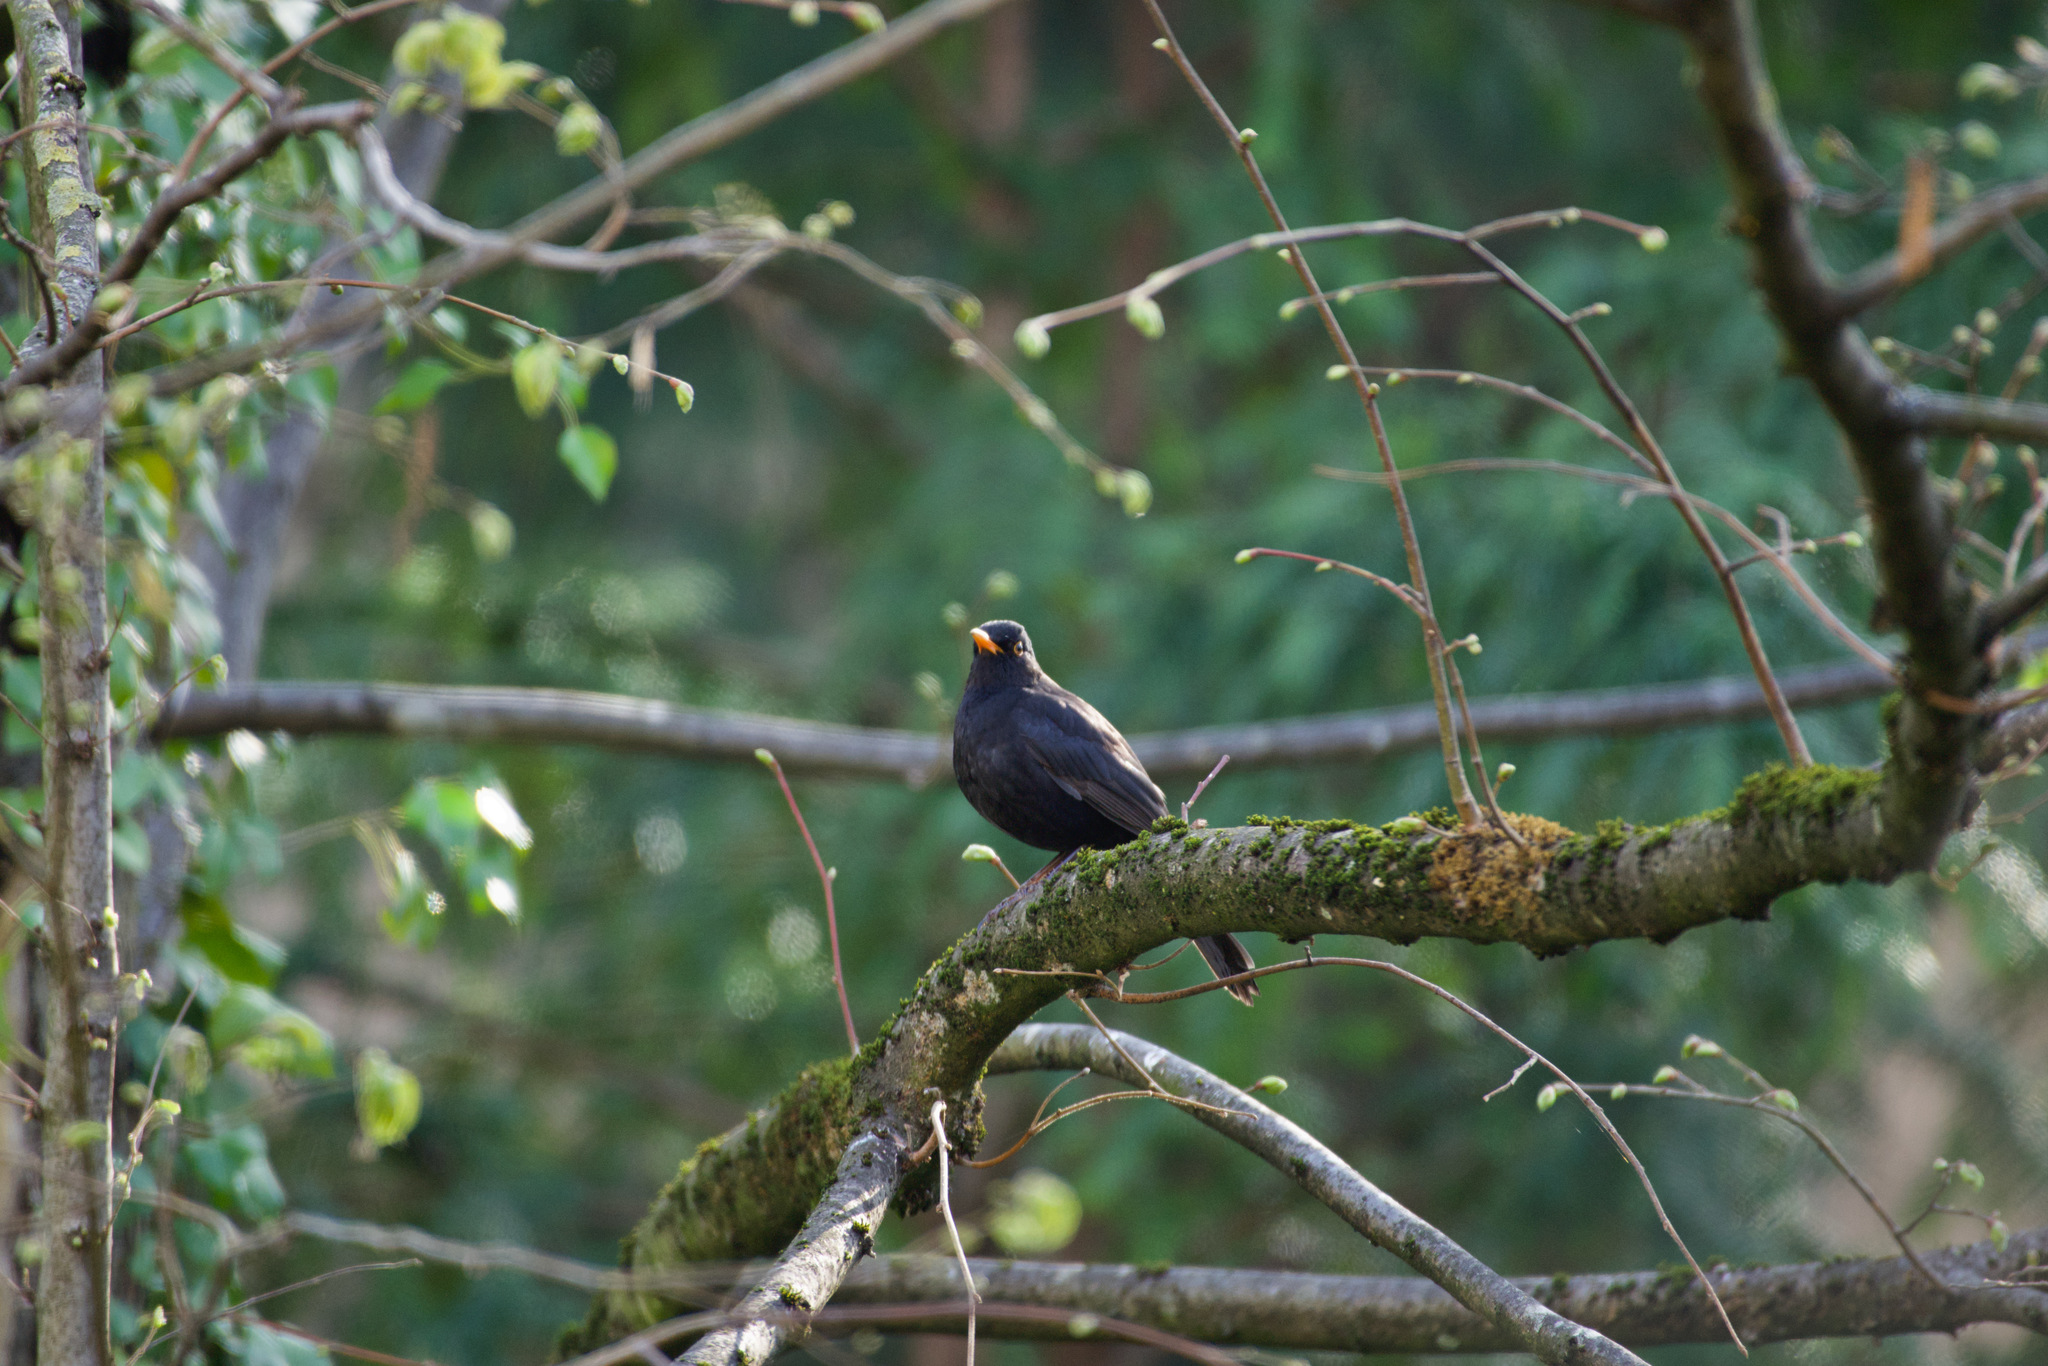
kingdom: Animalia
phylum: Chordata
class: Aves
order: Passeriformes
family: Turdidae
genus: Turdus
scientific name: Turdus merula
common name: Common blackbird
